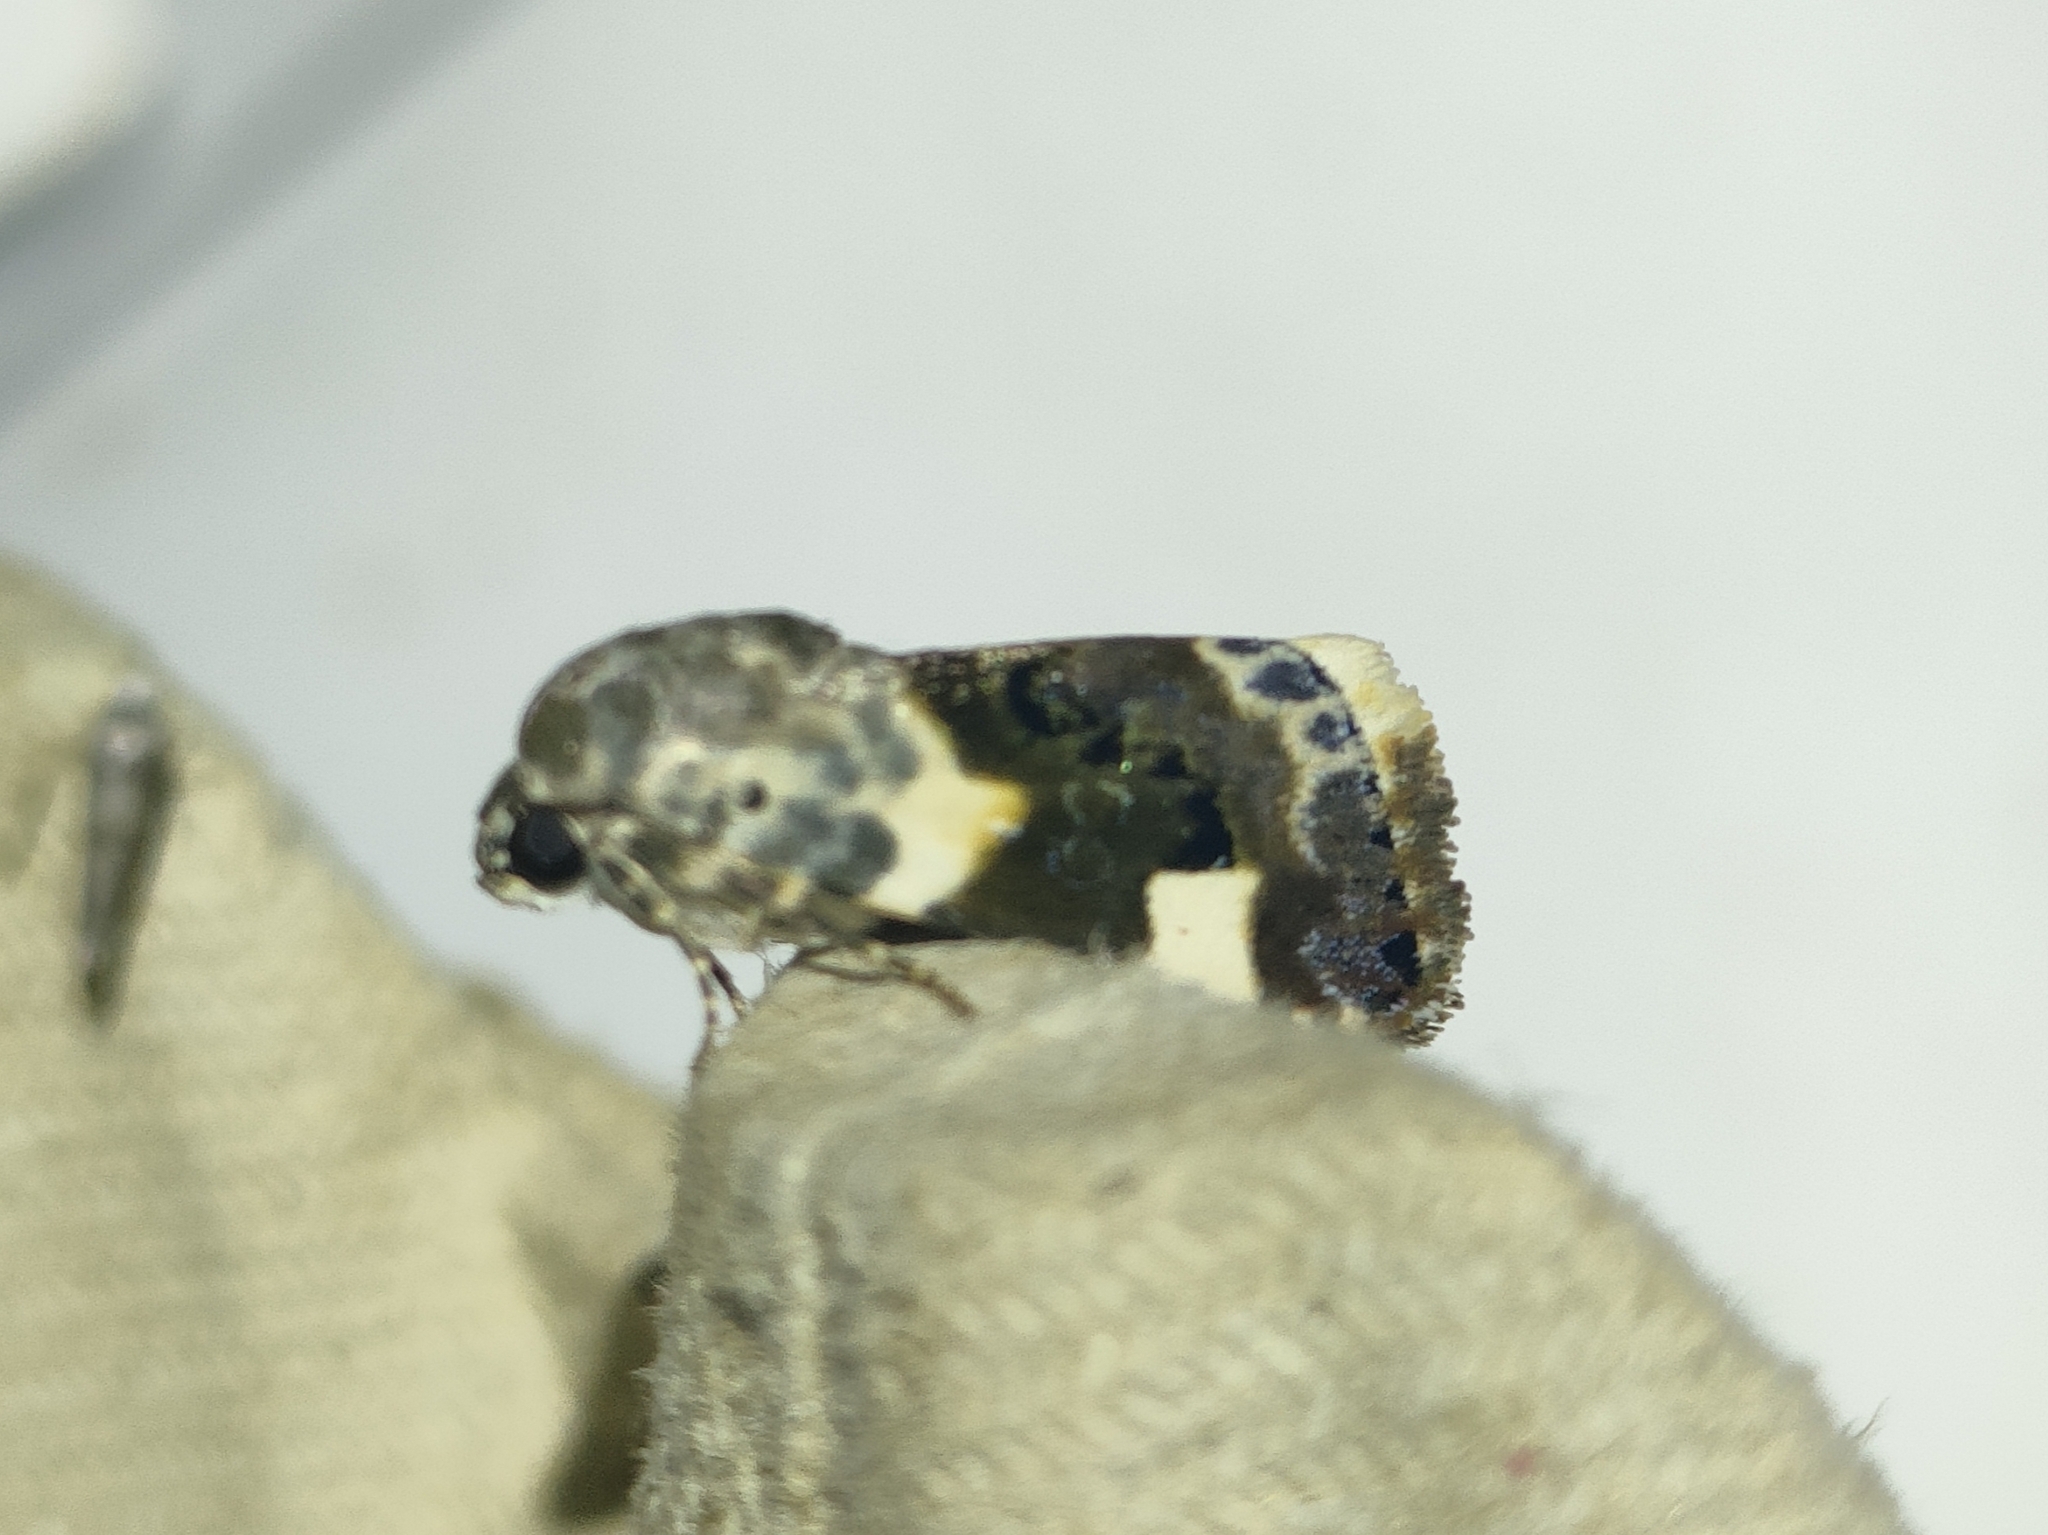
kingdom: Animalia
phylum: Arthropoda
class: Insecta
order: Lepidoptera
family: Noctuidae
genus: Acontia
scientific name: Acontia lucida
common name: Pale shoulder
